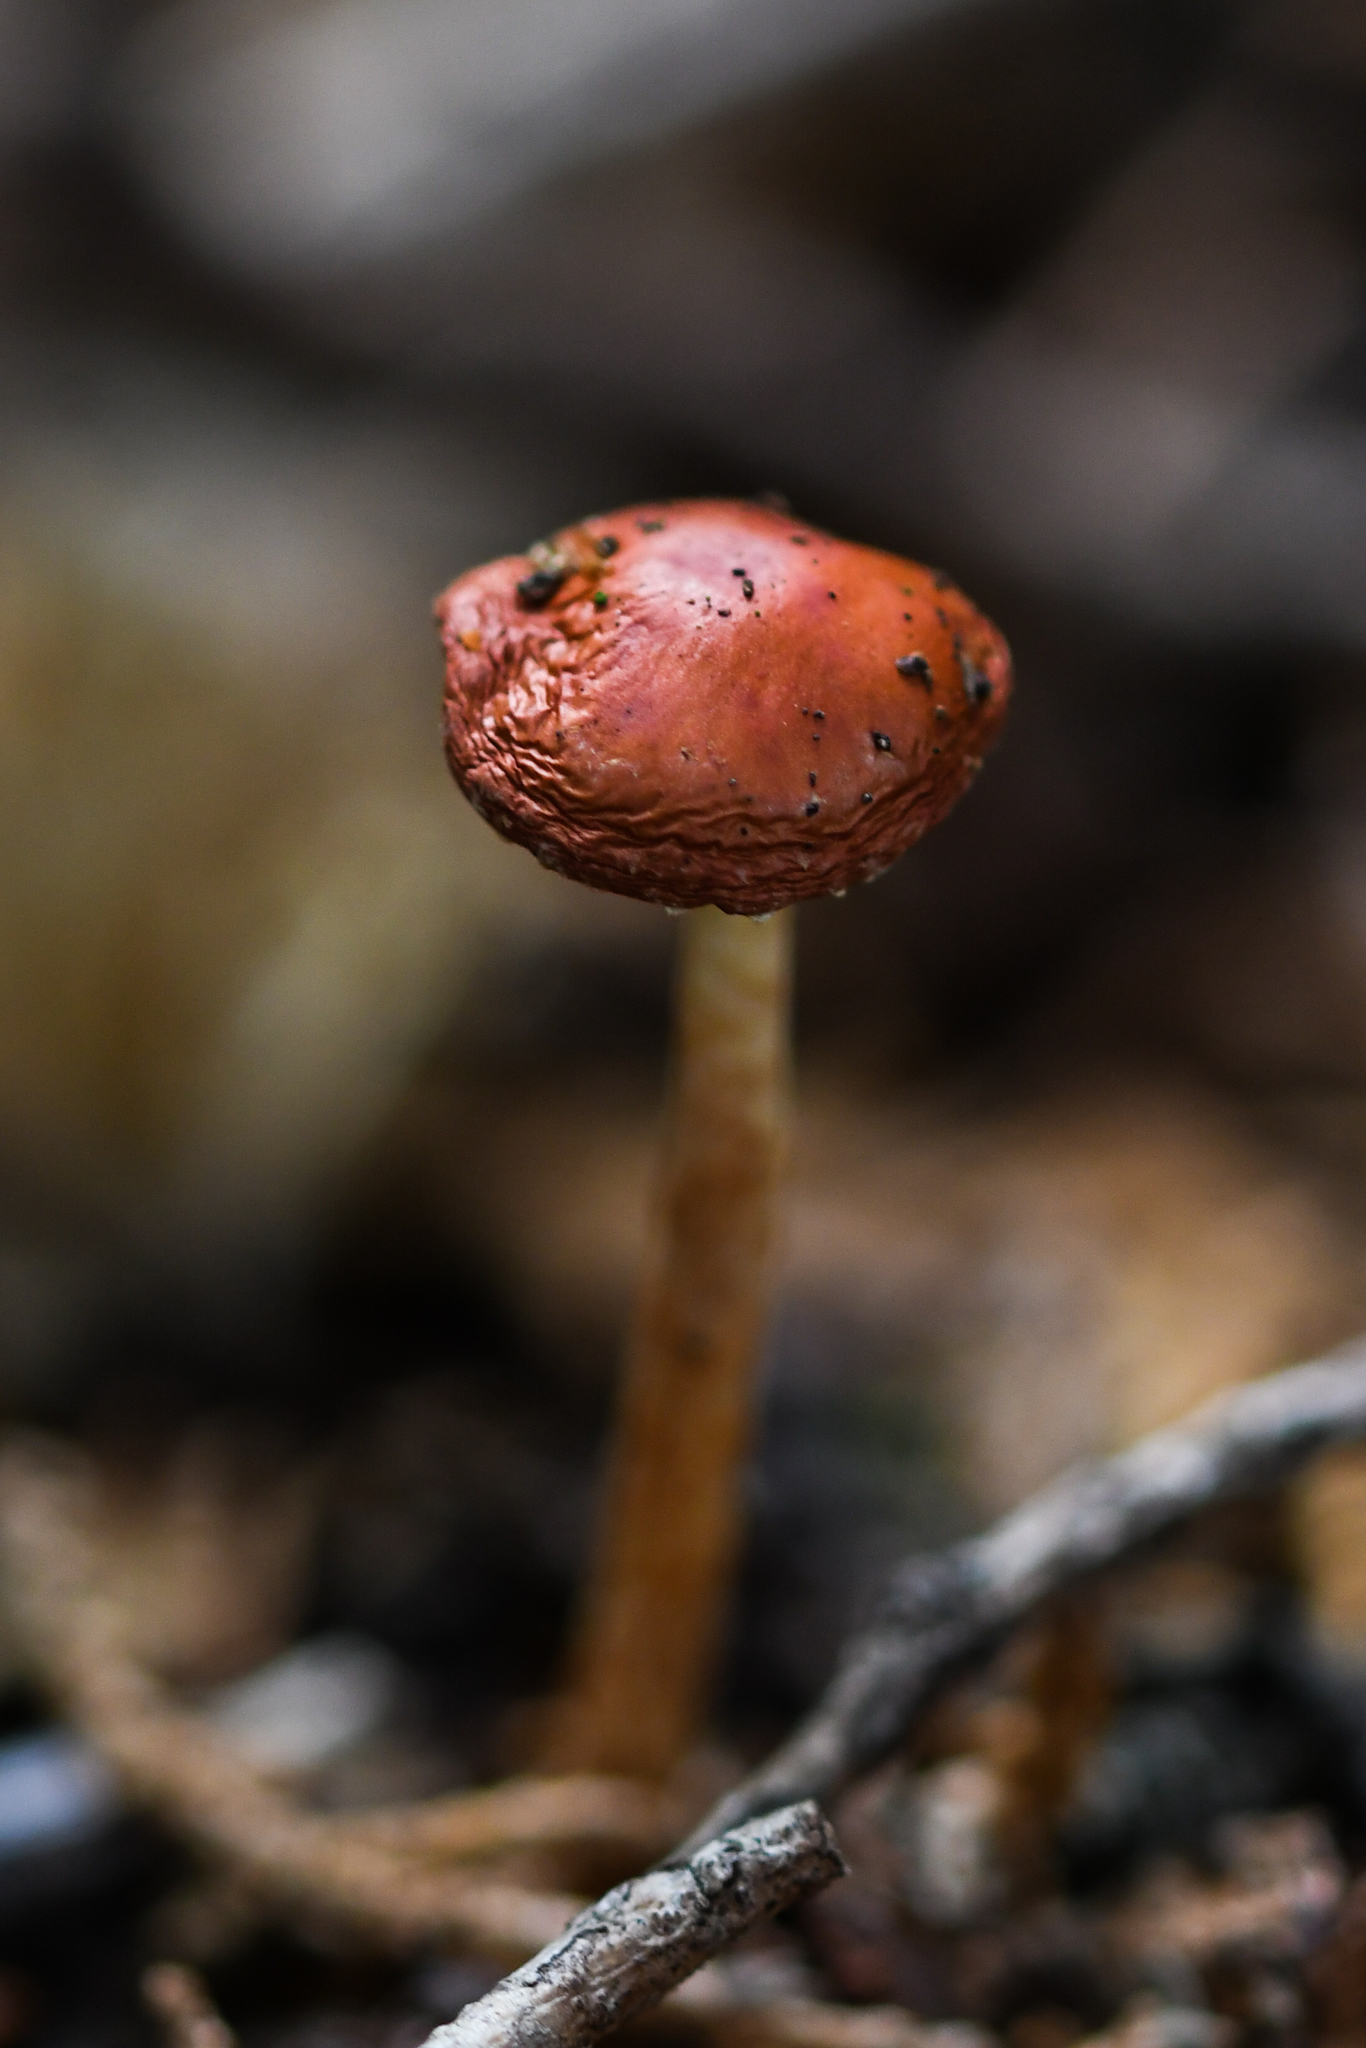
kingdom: Fungi
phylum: Basidiomycota
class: Agaricomycetes
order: Agaricales
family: Strophariaceae
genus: Leratiomyces
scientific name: Leratiomyces ceres
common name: Redlead roundhead
